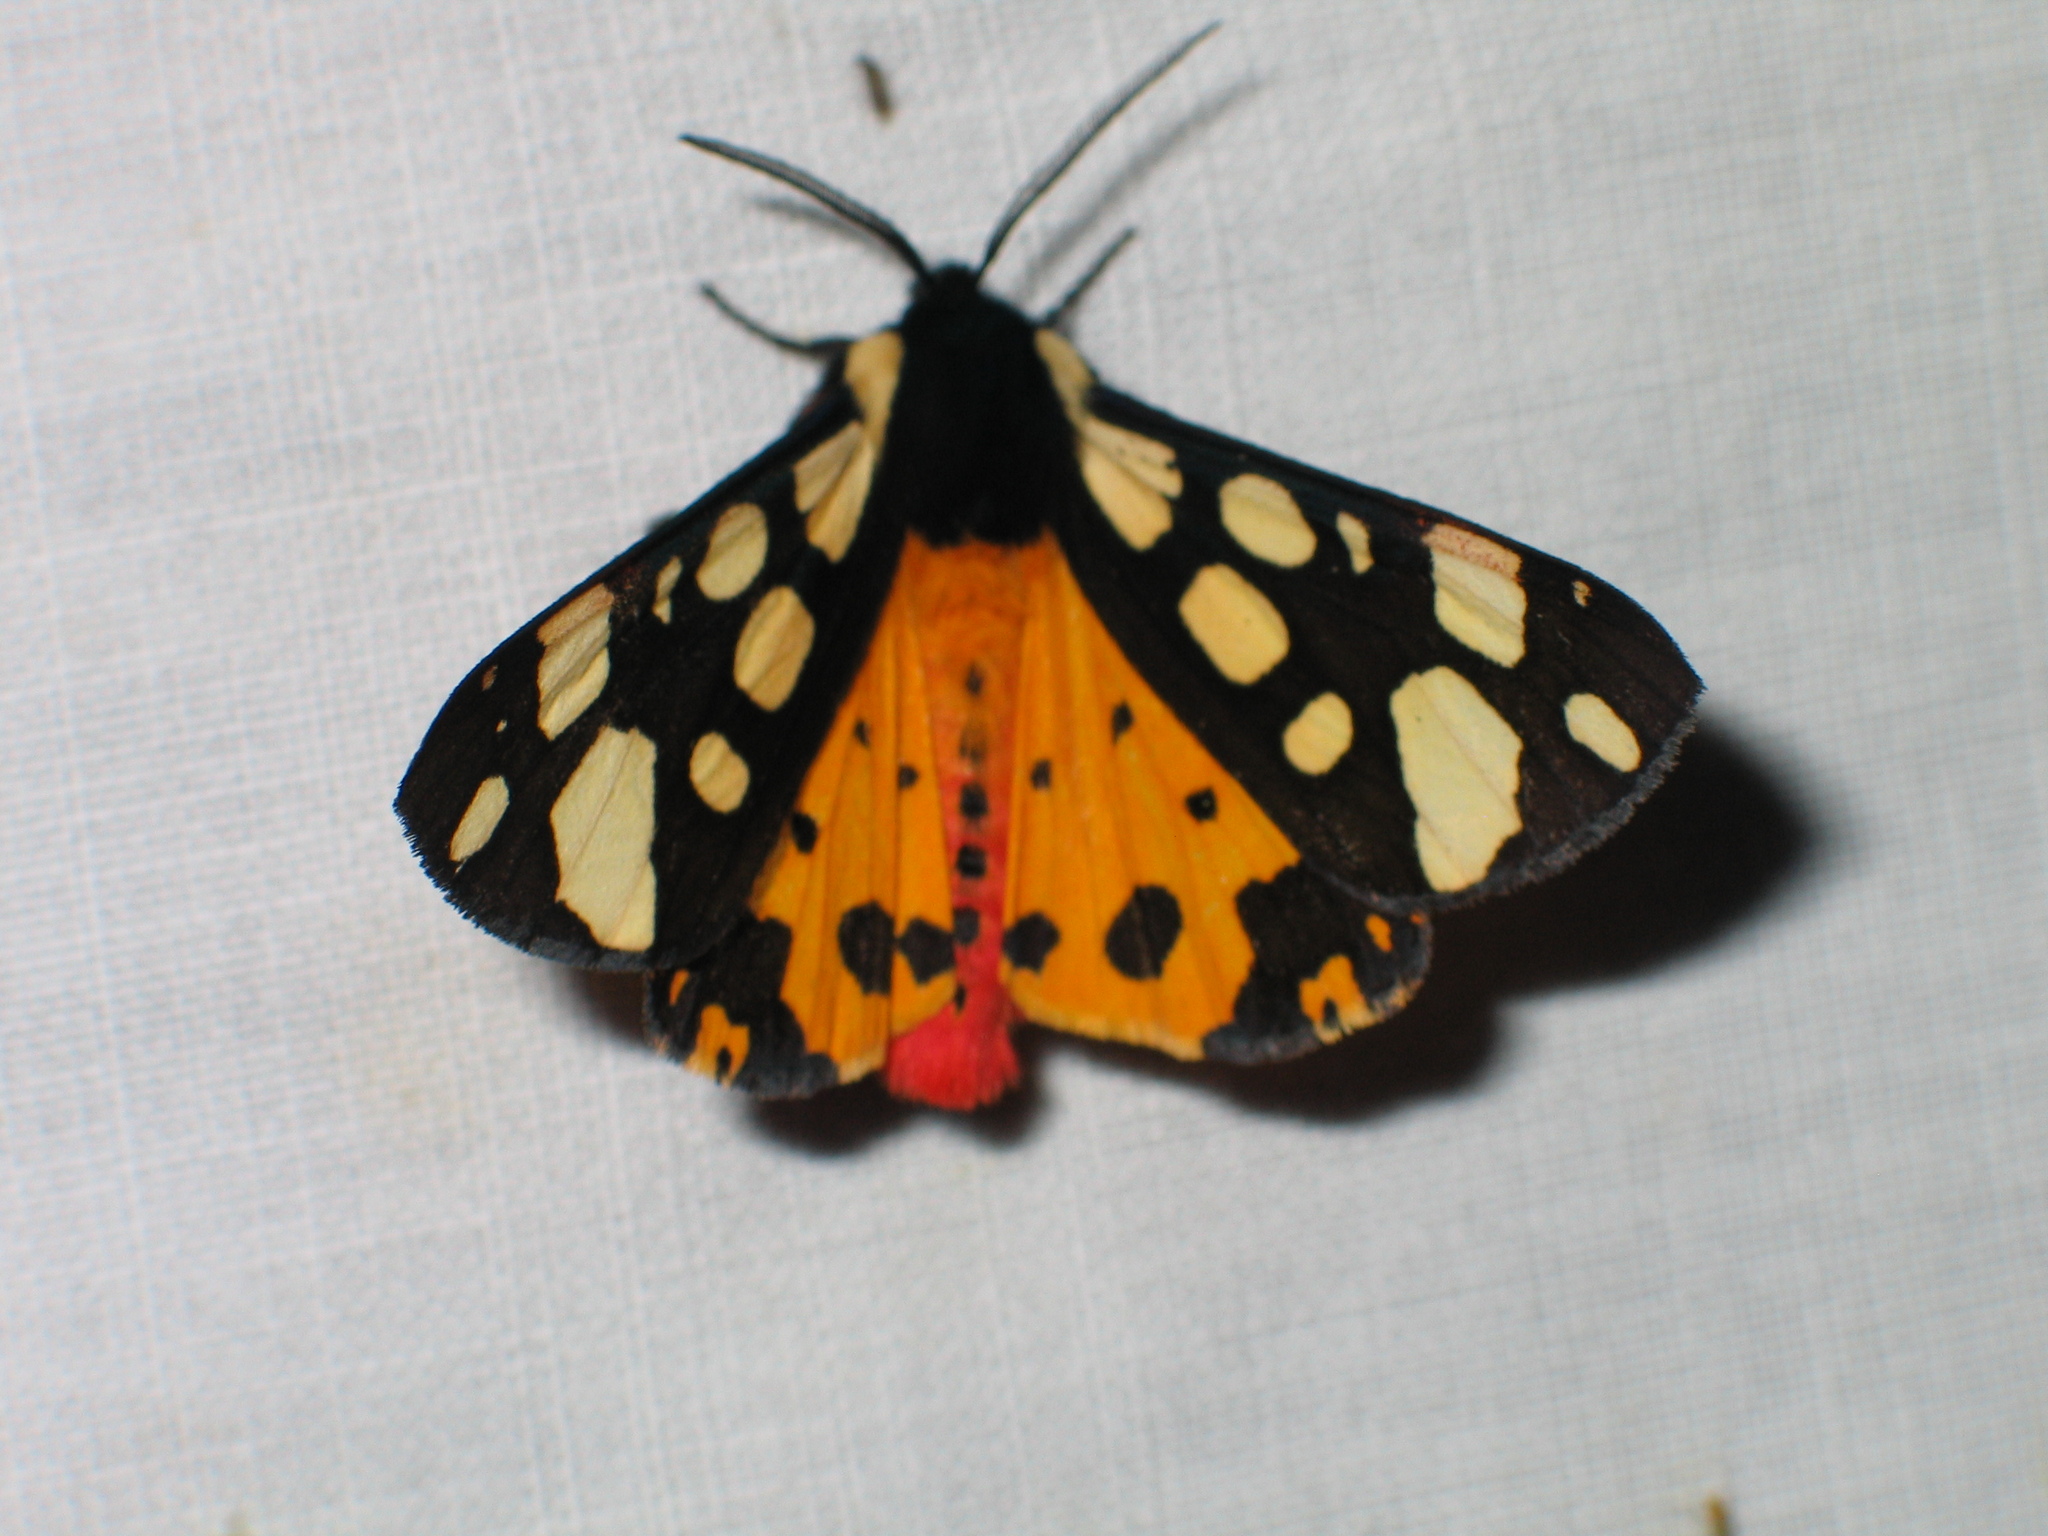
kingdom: Animalia
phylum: Arthropoda
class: Insecta
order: Lepidoptera
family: Erebidae
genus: Epicallia
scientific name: Epicallia villica
